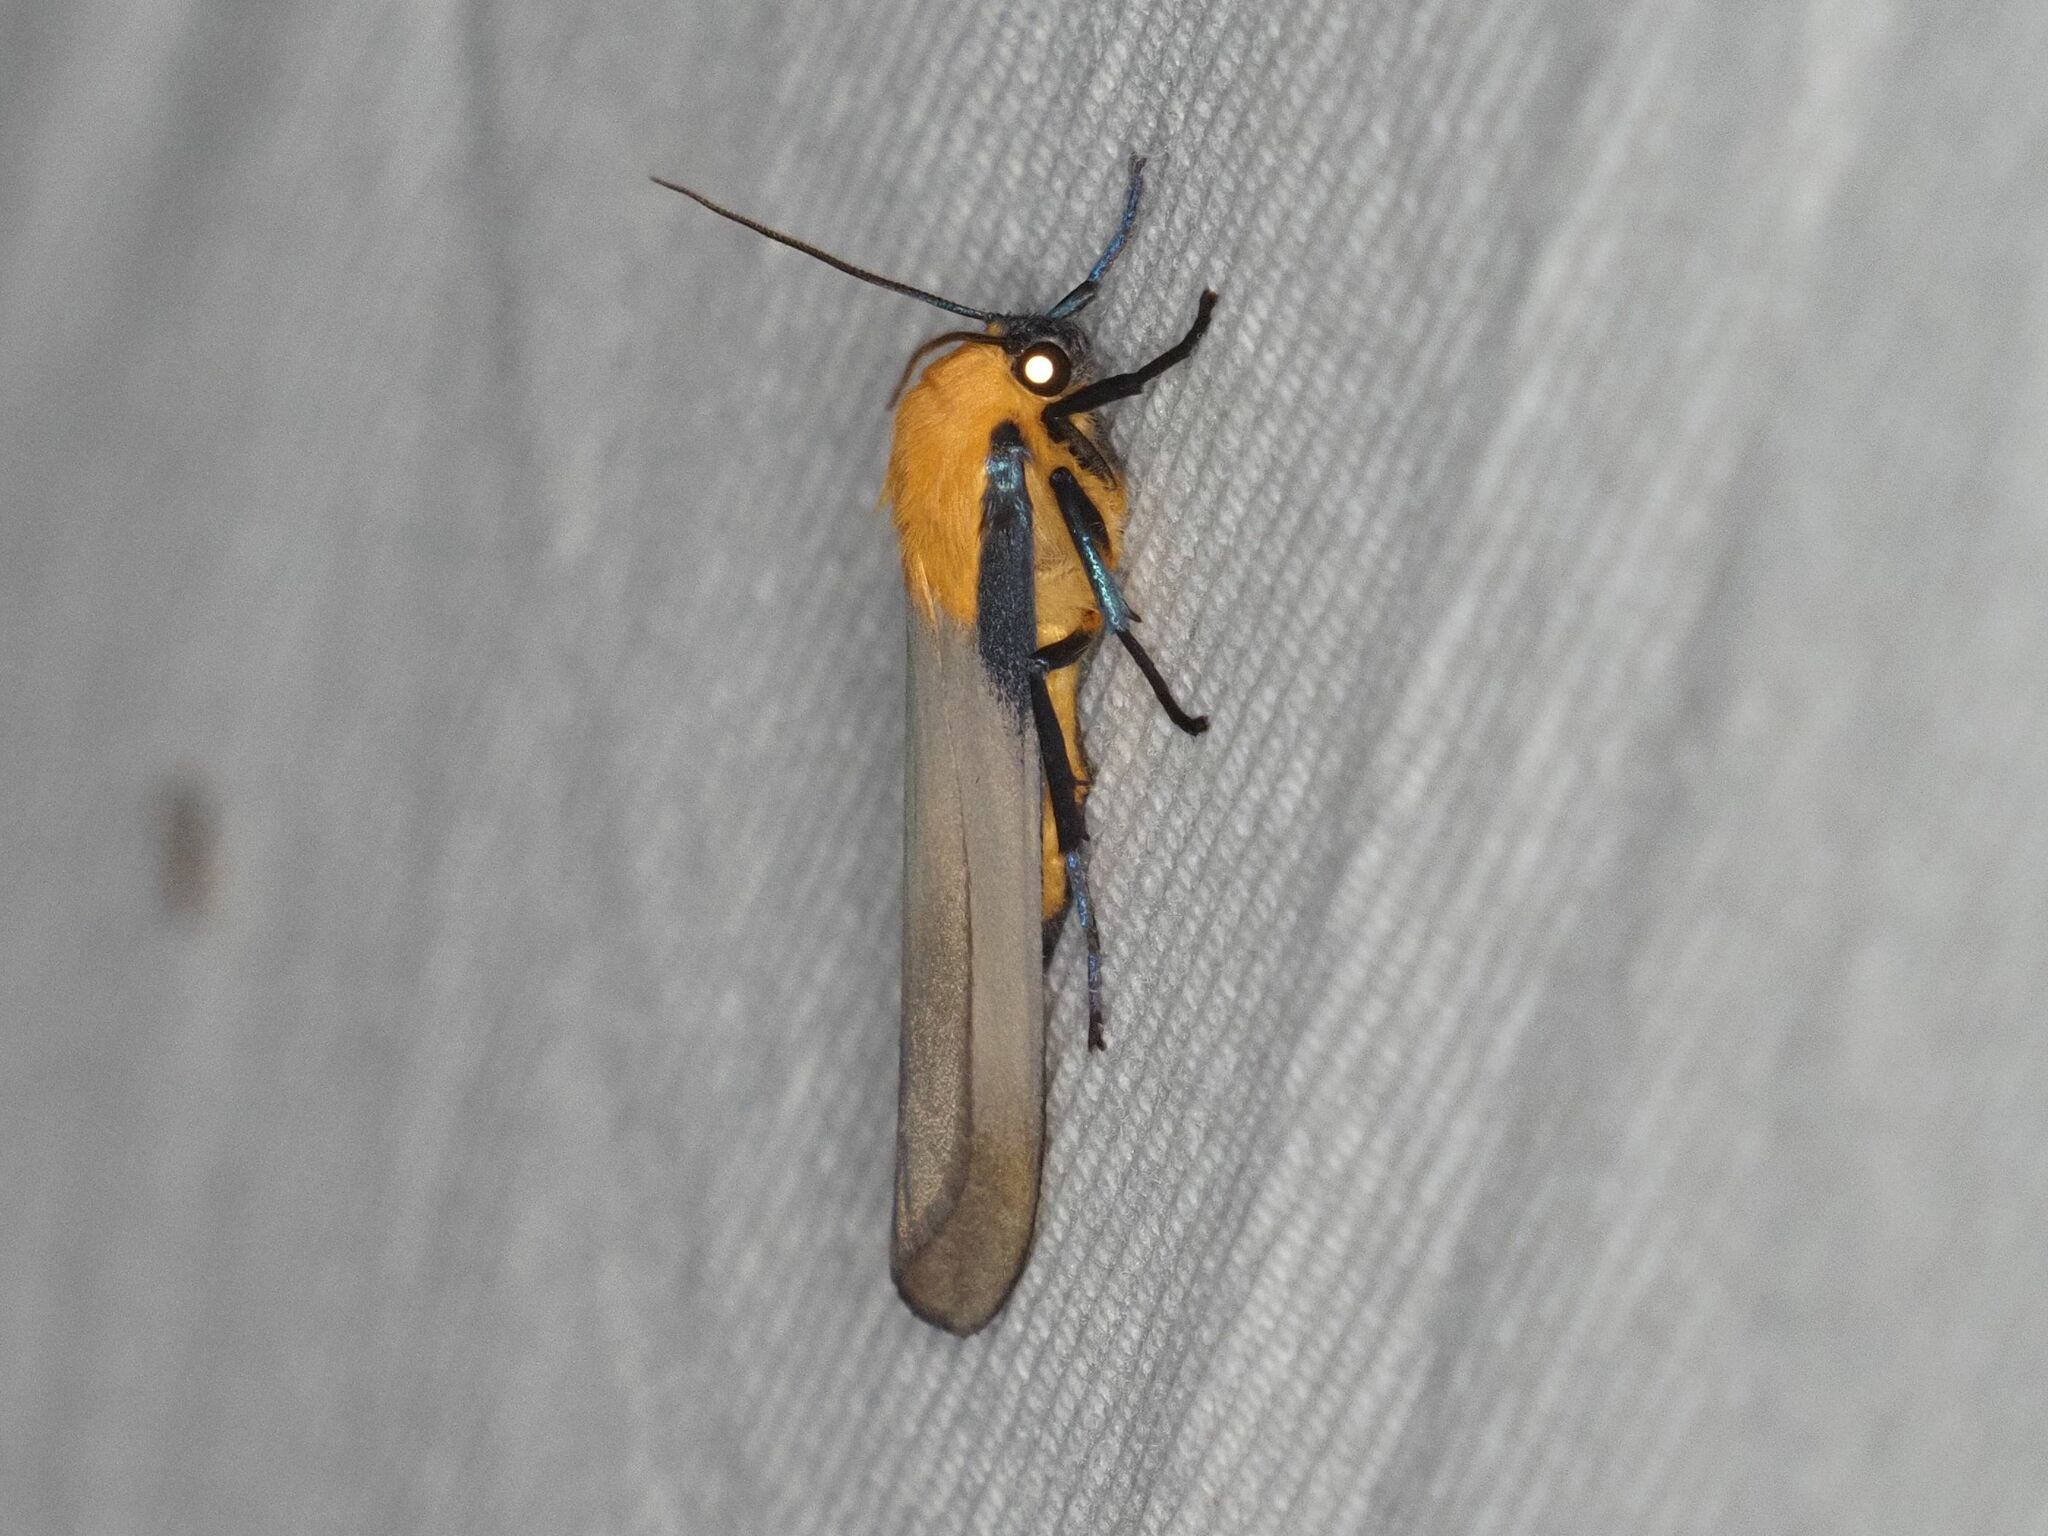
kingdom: Animalia
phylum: Arthropoda
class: Insecta
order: Lepidoptera
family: Erebidae
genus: Lithosia
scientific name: Lithosia quadra
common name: Four-spotted footman
